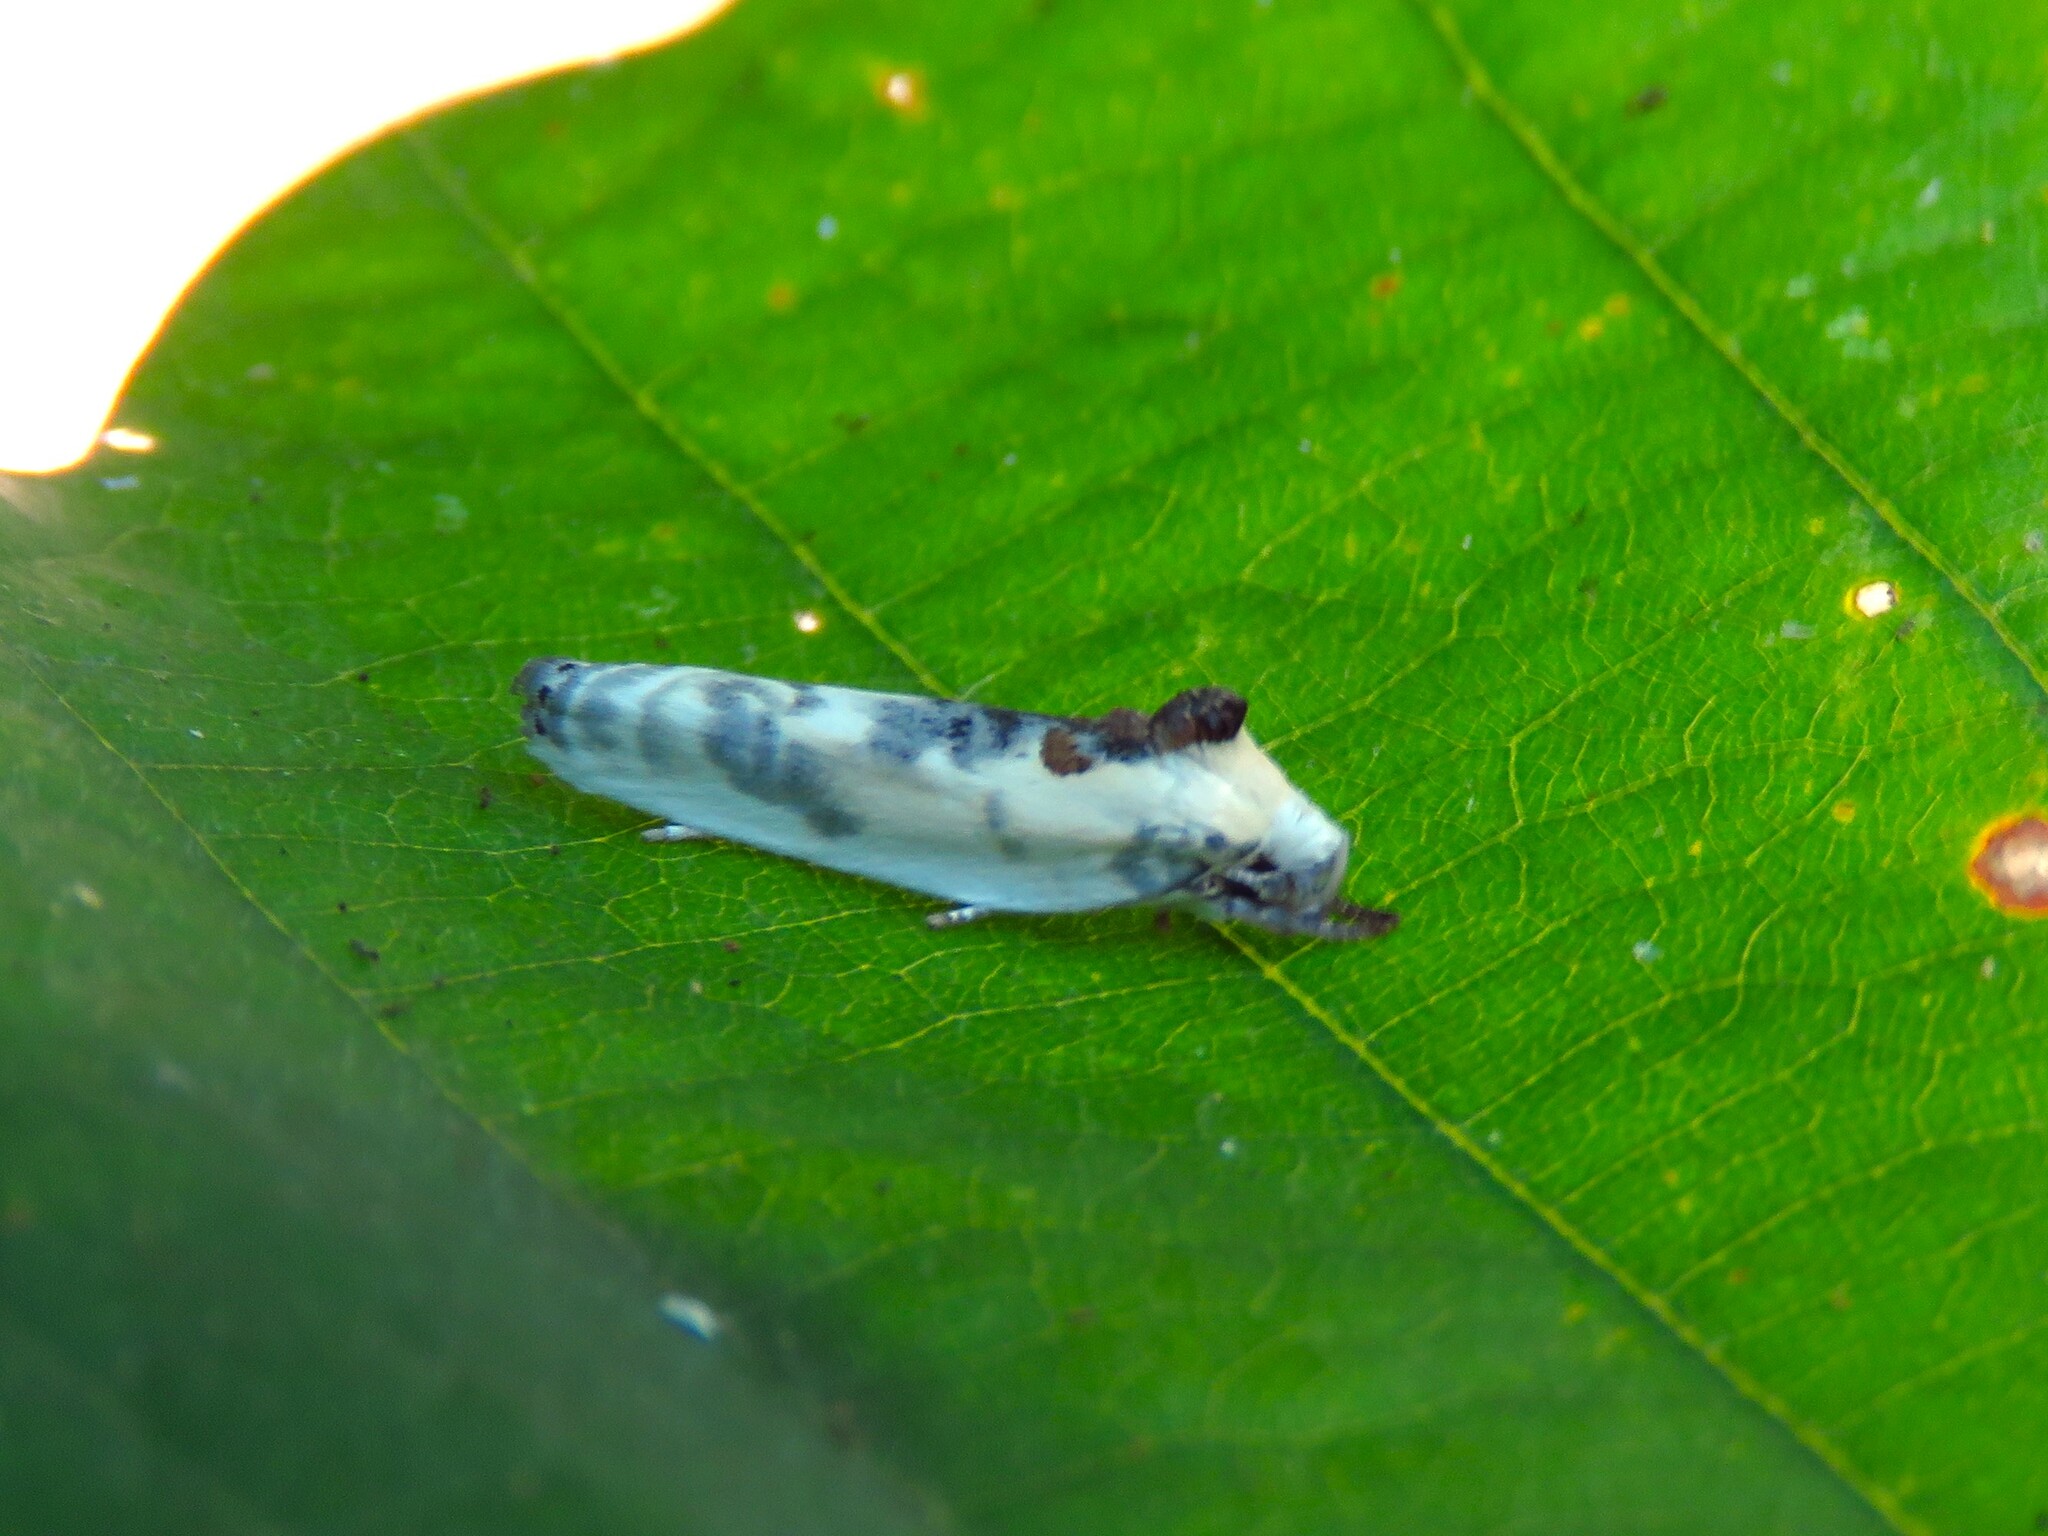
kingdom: Animalia
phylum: Arthropoda
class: Insecta
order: Lepidoptera
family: Depressariidae
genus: Antaeotricha
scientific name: Antaeotricha schlaegeri
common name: Schlaeger's fruitworm moth
